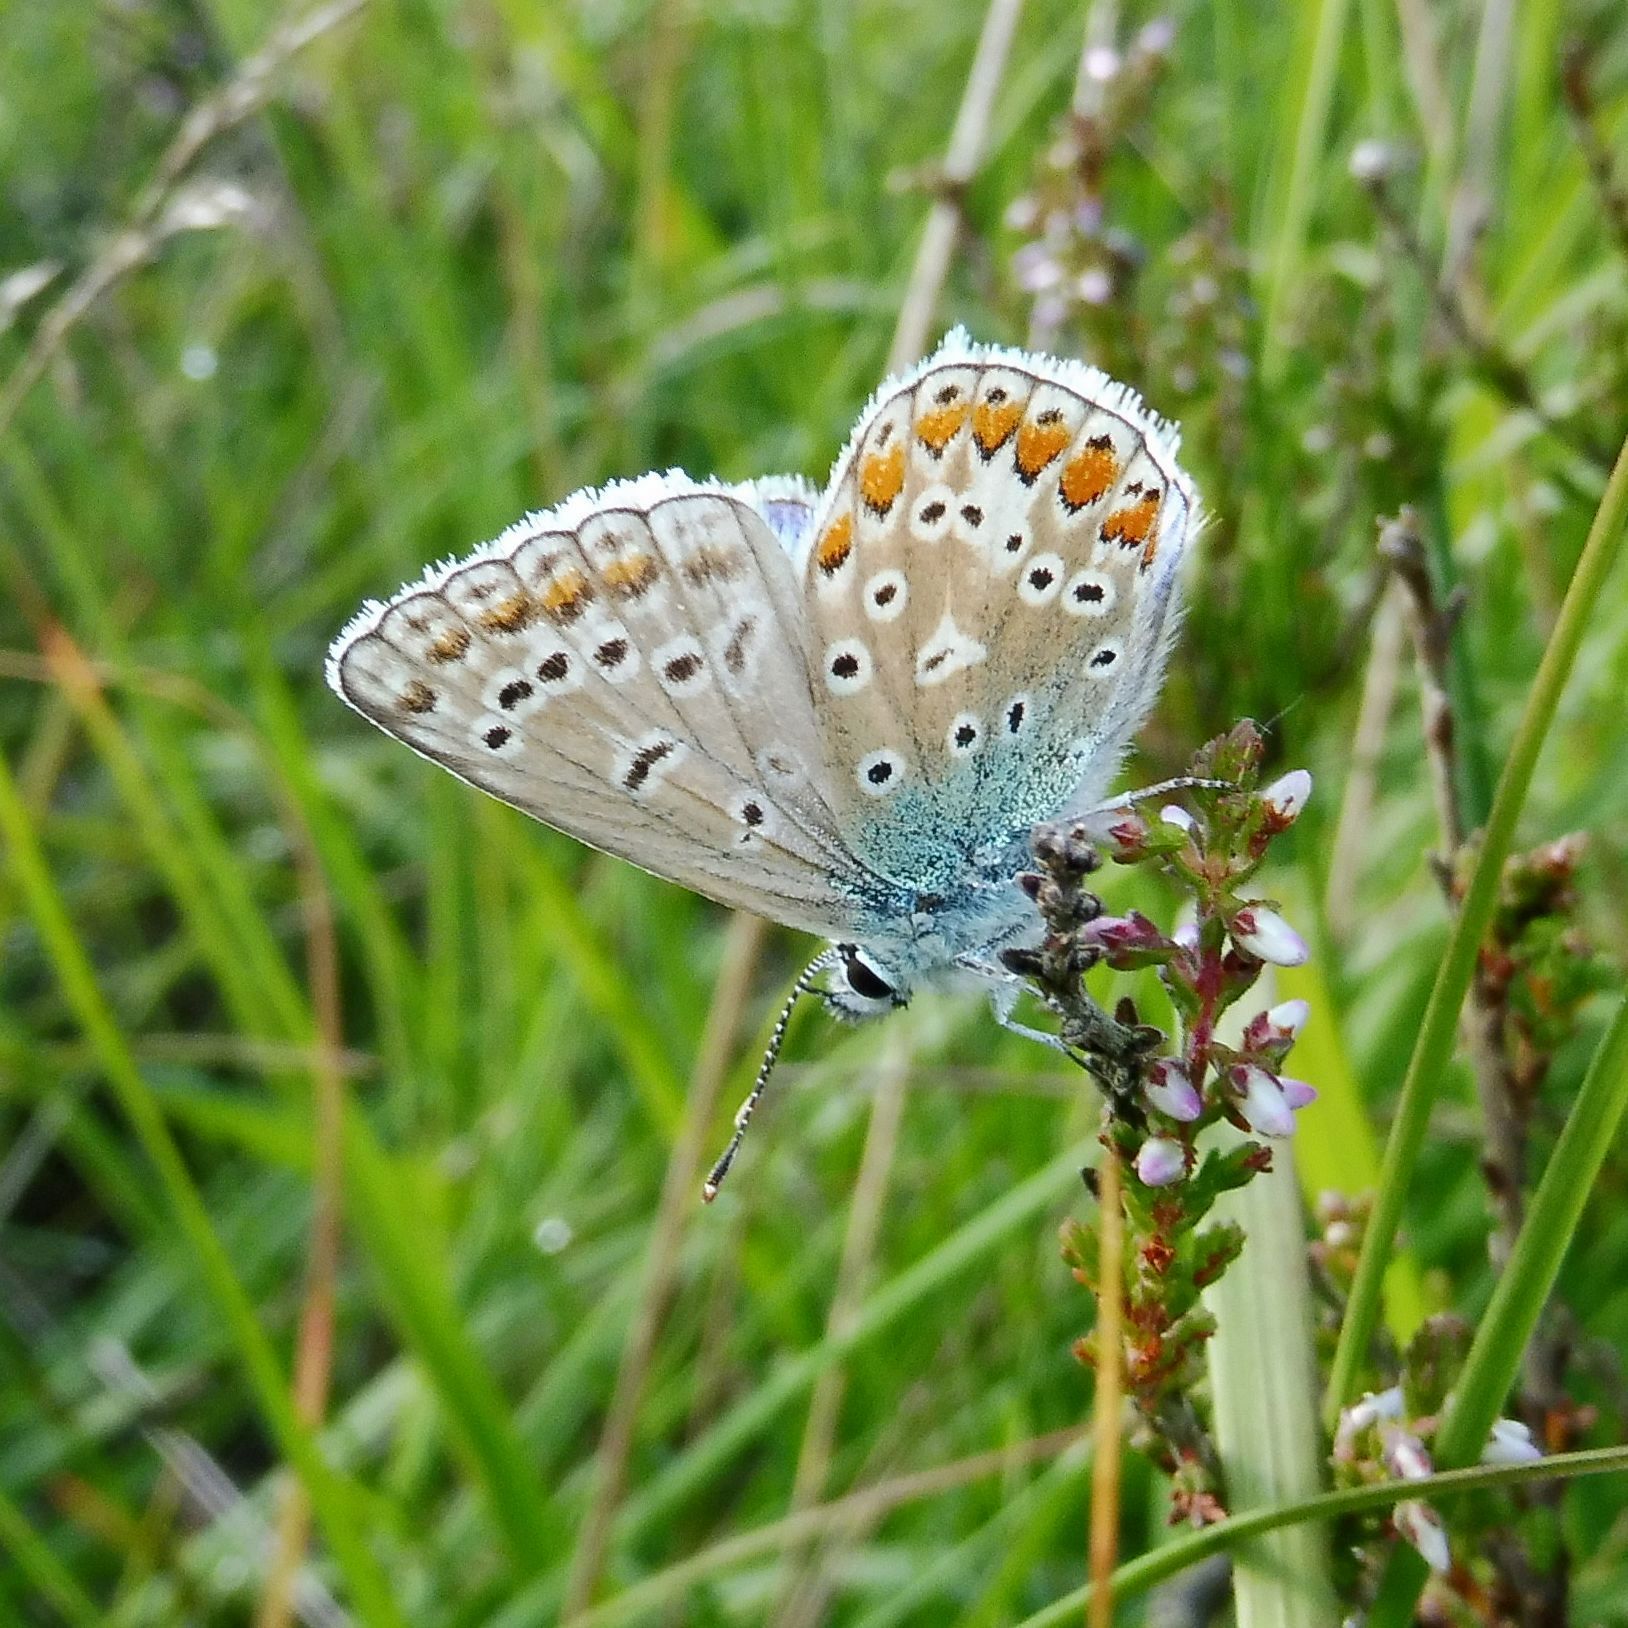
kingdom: Animalia
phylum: Arthropoda
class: Insecta
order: Lepidoptera
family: Lycaenidae
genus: Polyommatus
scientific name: Polyommatus icarus
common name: Common blue
